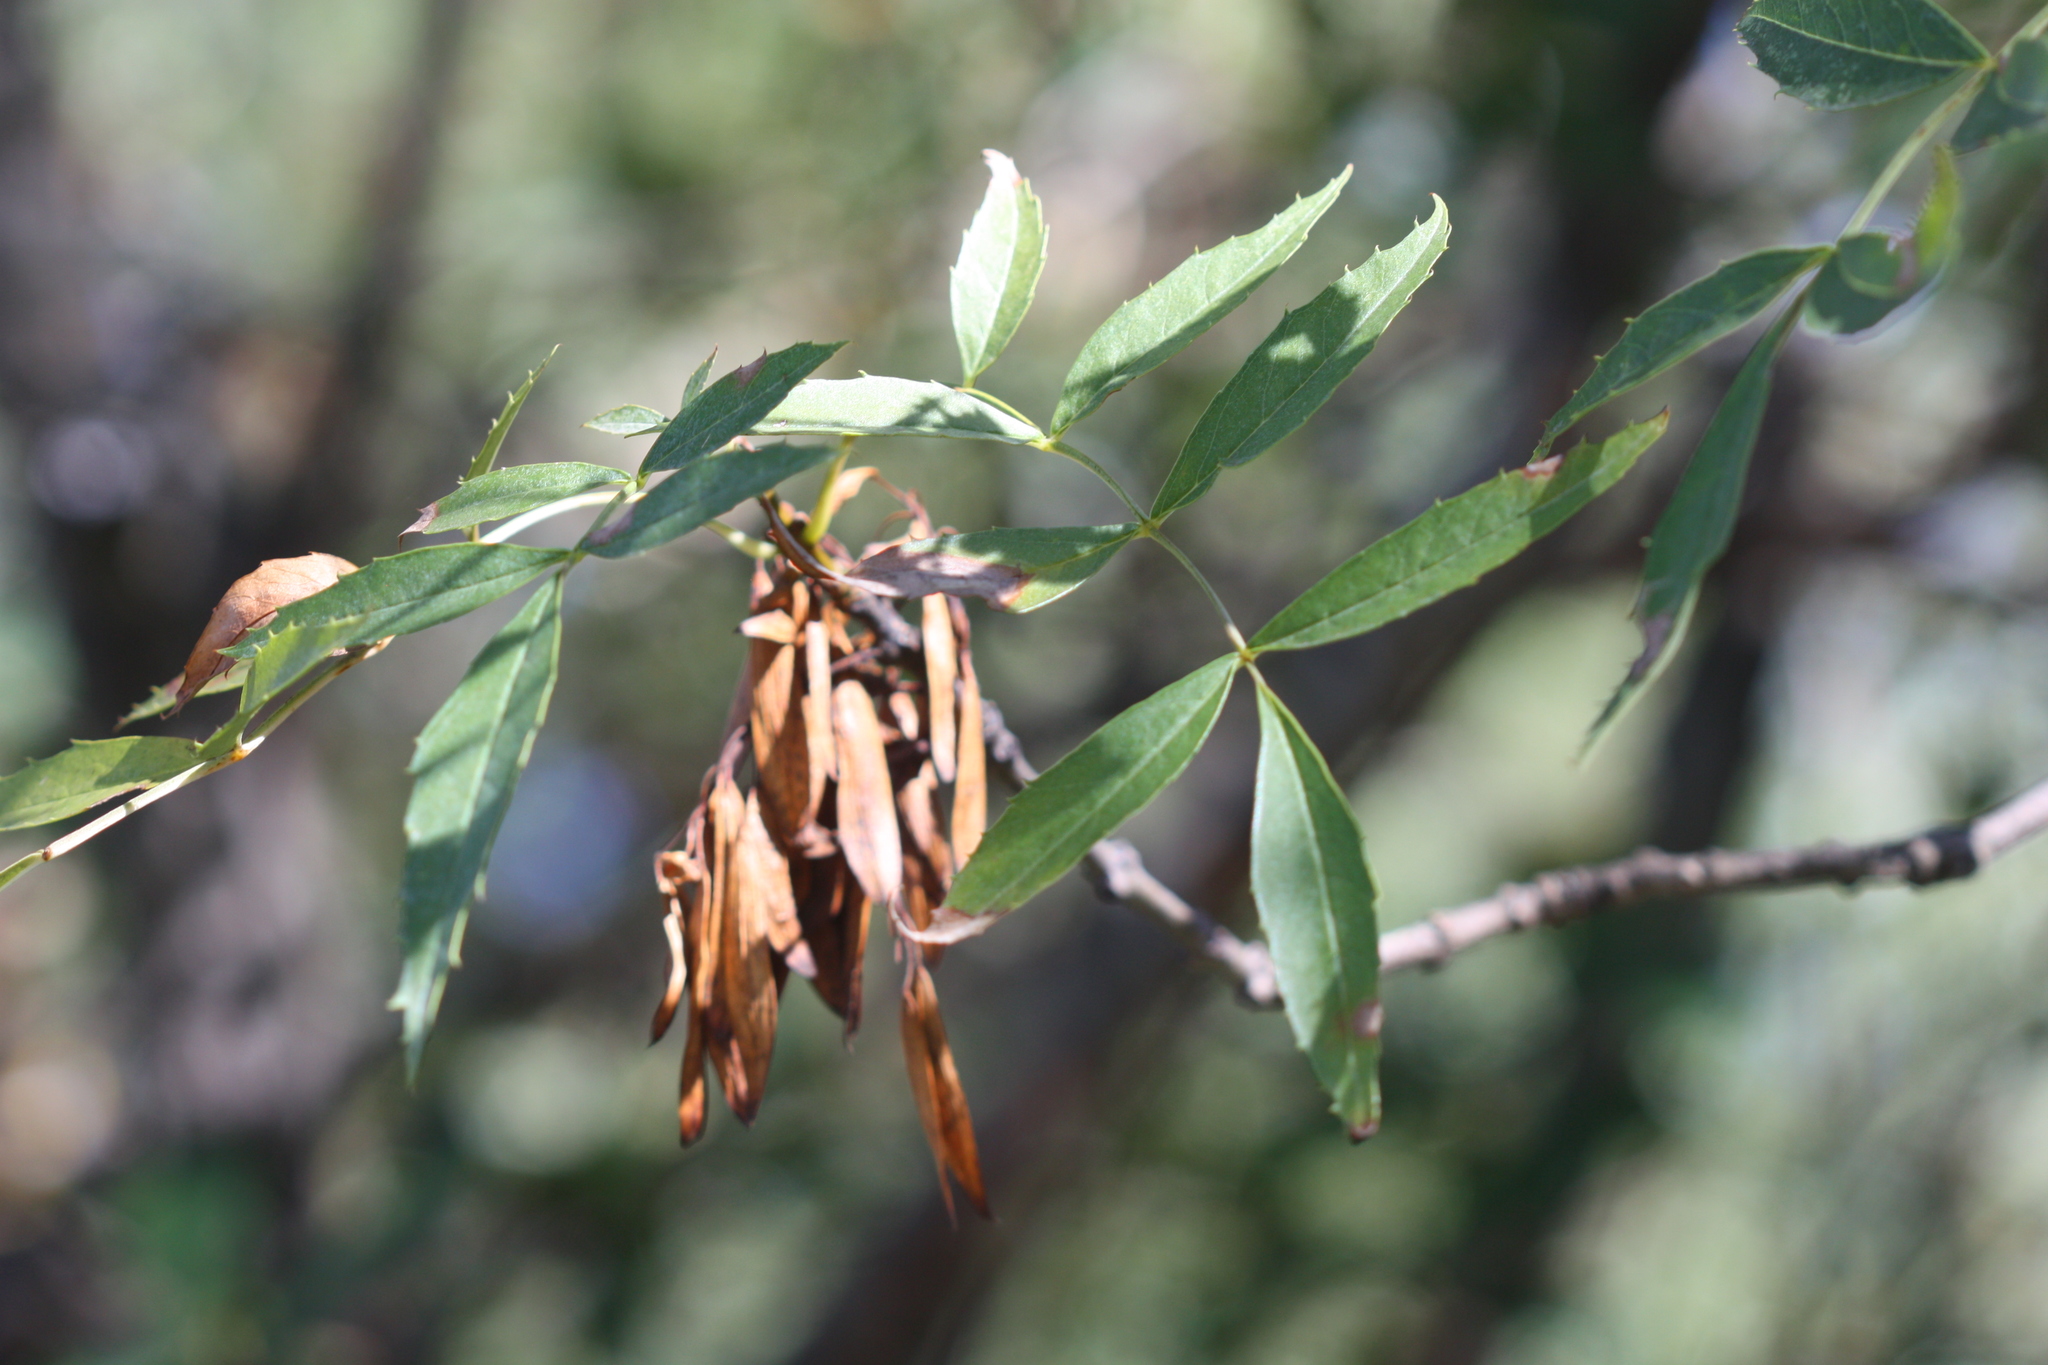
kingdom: Plantae
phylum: Tracheophyta
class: Magnoliopsida
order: Lamiales
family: Oleaceae
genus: Fraxinus
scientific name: Fraxinus angustifolia
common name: Narrow-leafed ash
